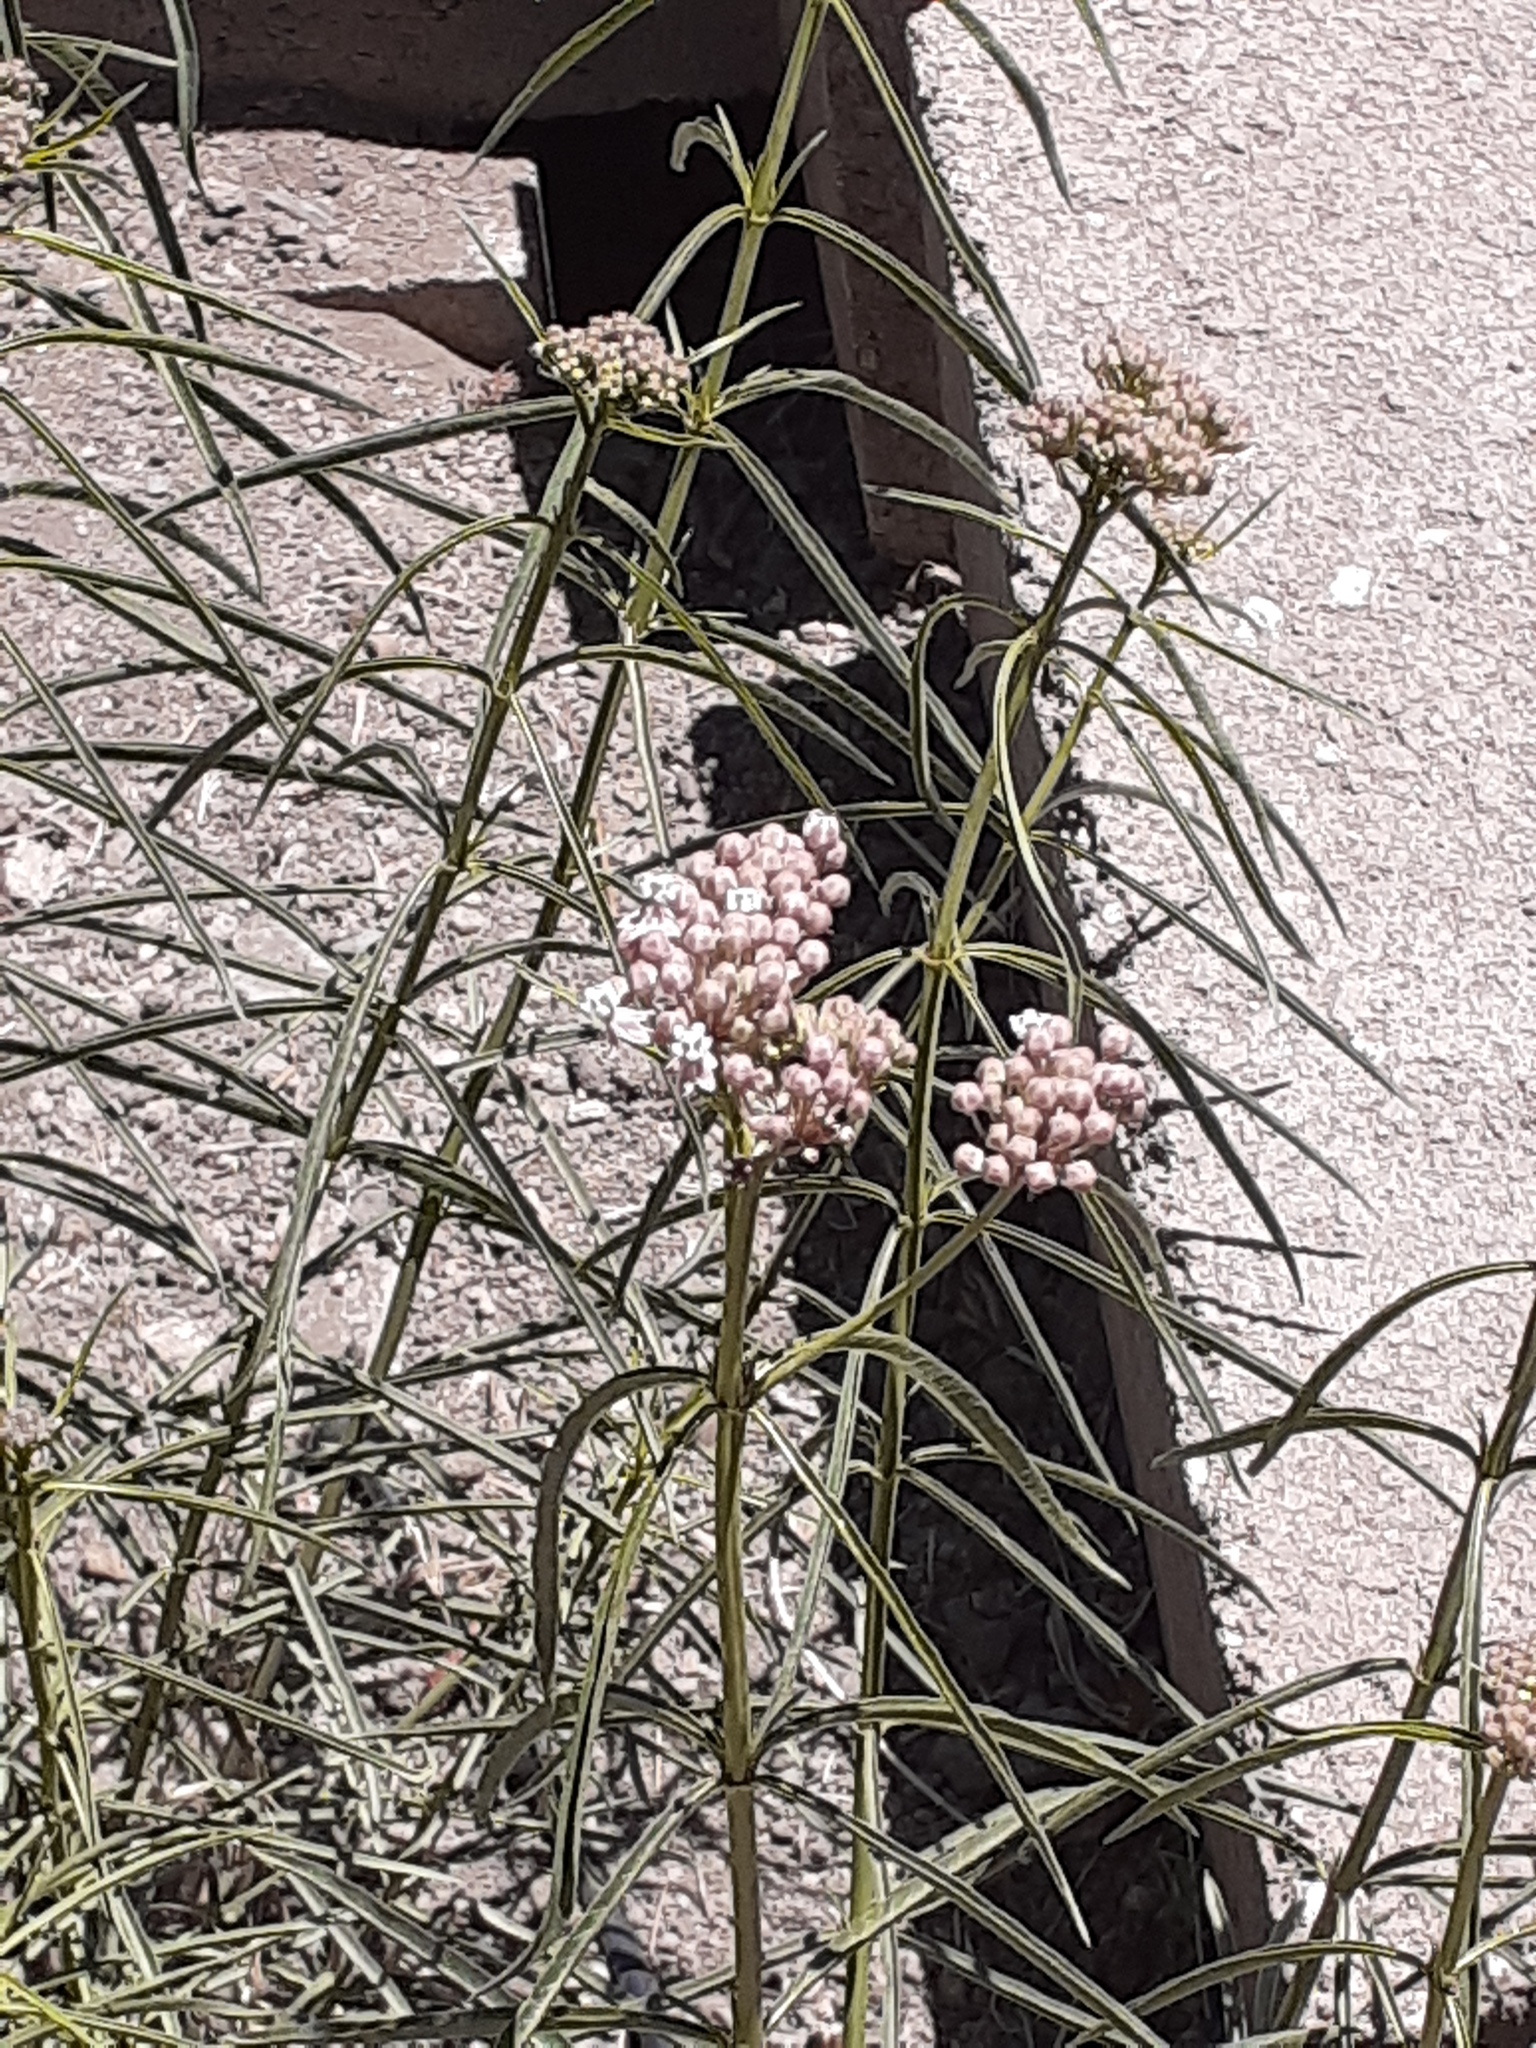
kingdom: Plantae
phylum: Tracheophyta
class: Magnoliopsida
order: Gentianales
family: Apocynaceae
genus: Asclepias
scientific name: Asclepias fascicularis
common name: Mexican milkweed
